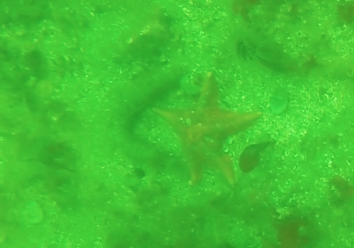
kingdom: Animalia
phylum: Echinodermata
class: Asteroidea
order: Valvatida
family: Asterinidae
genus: Patiria
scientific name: Patiria miniata
